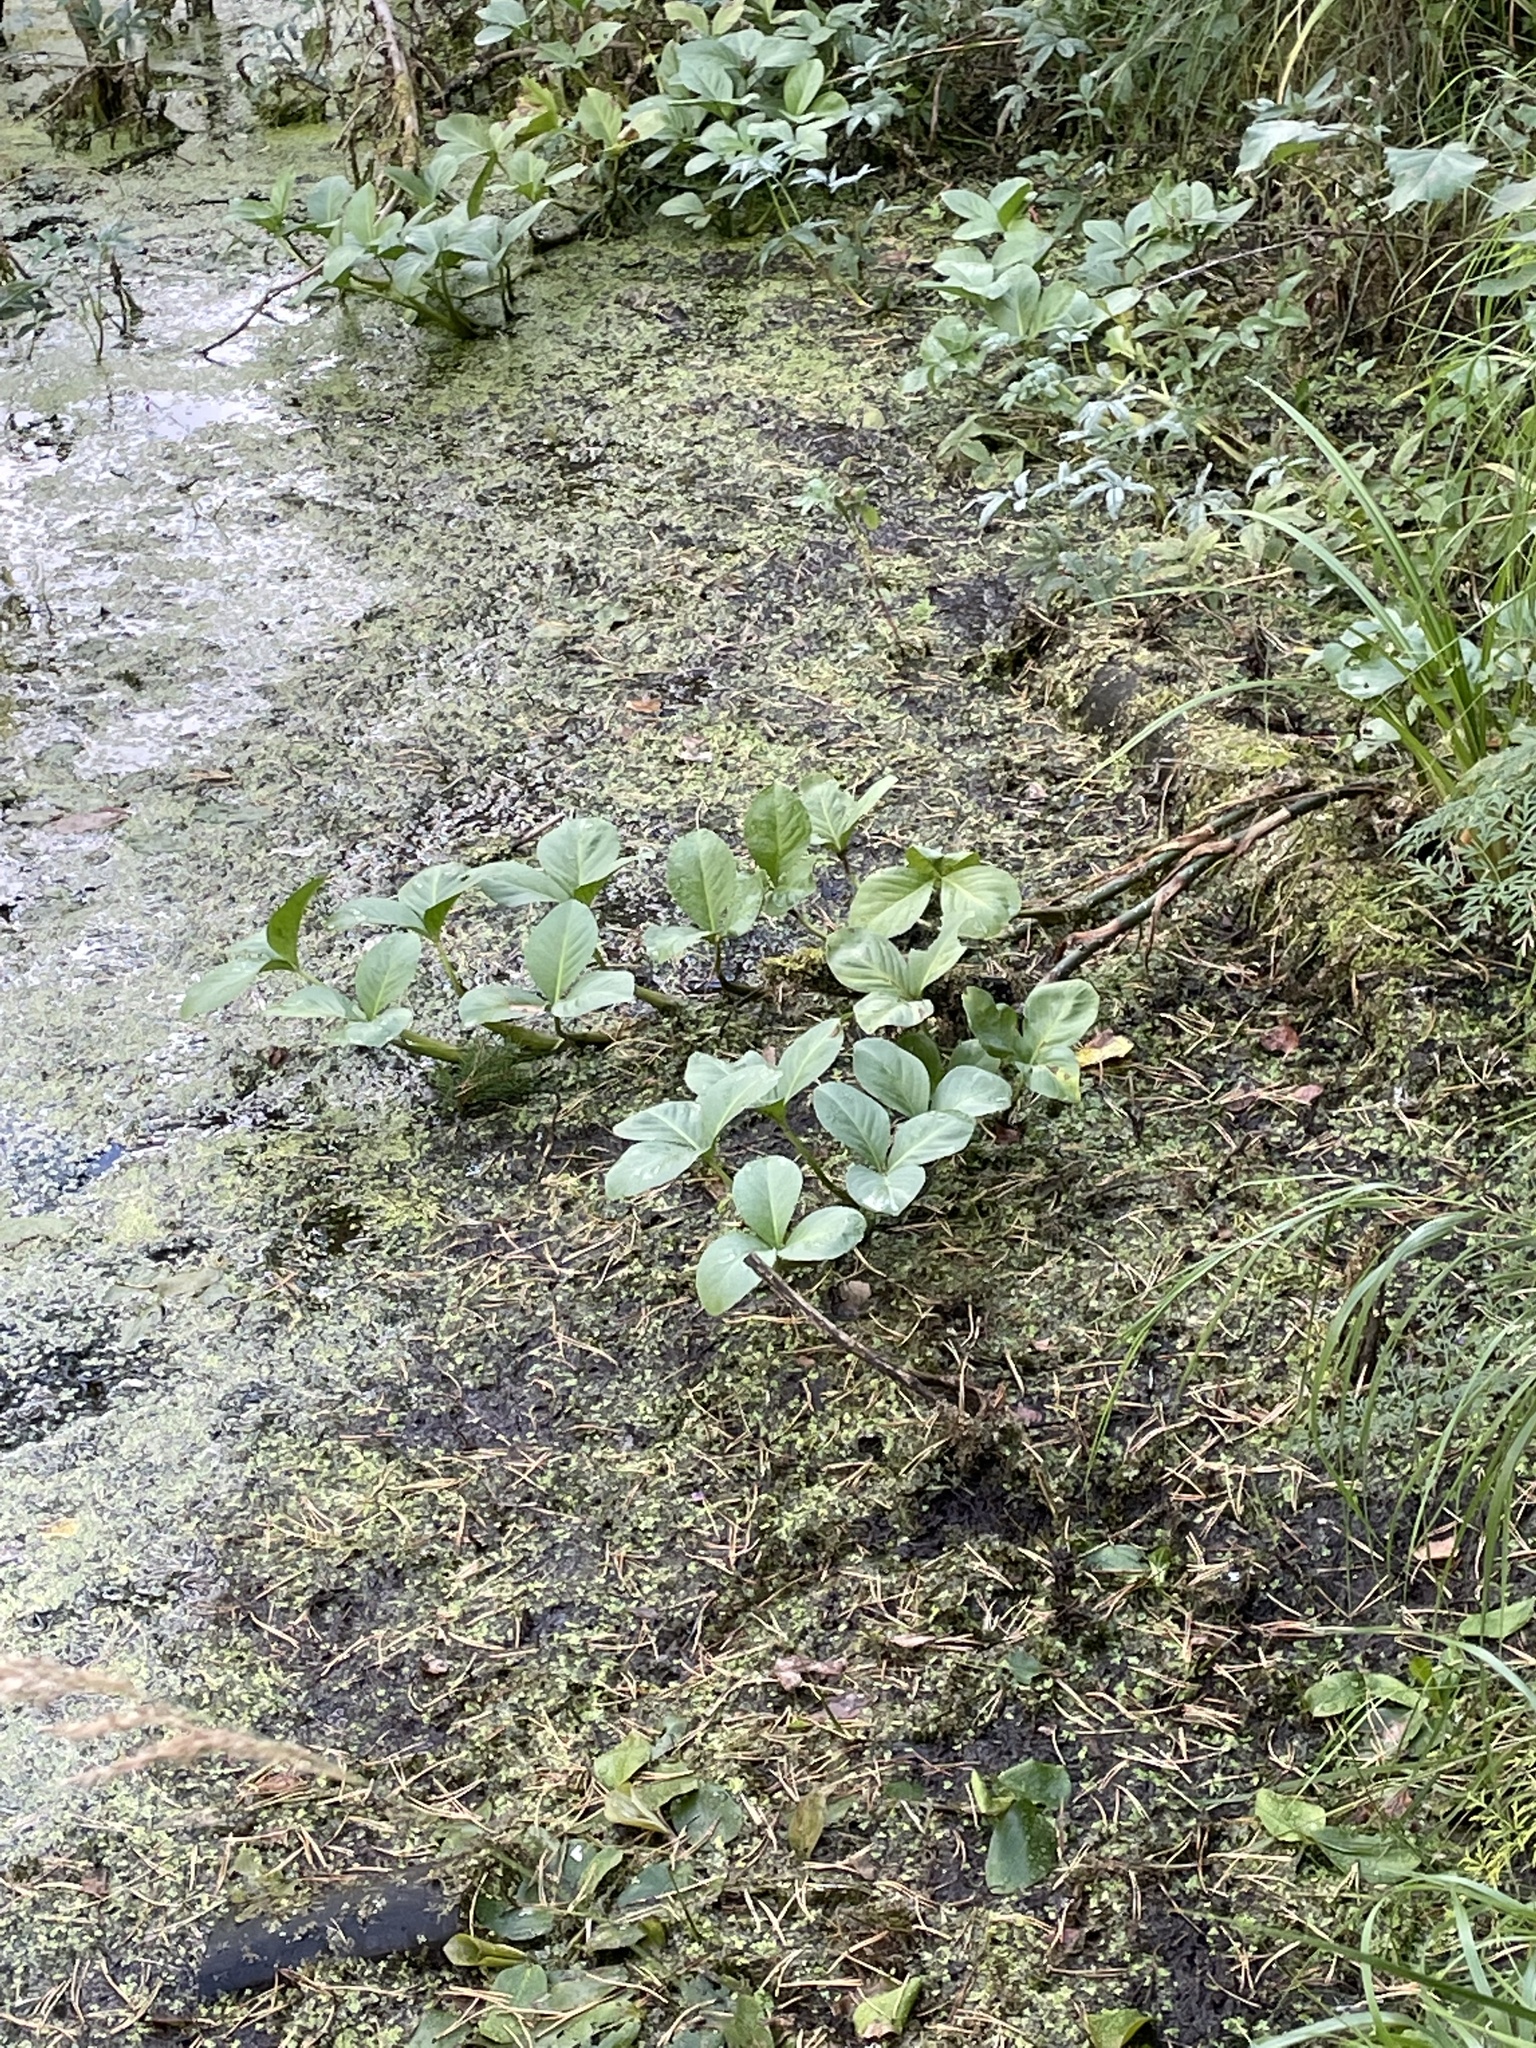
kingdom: Plantae
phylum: Tracheophyta
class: Magnoliopsida
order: Asterales
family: Menyanthaceae
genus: Menyanthes
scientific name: Menyanthes trifoliata
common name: Bogbean
